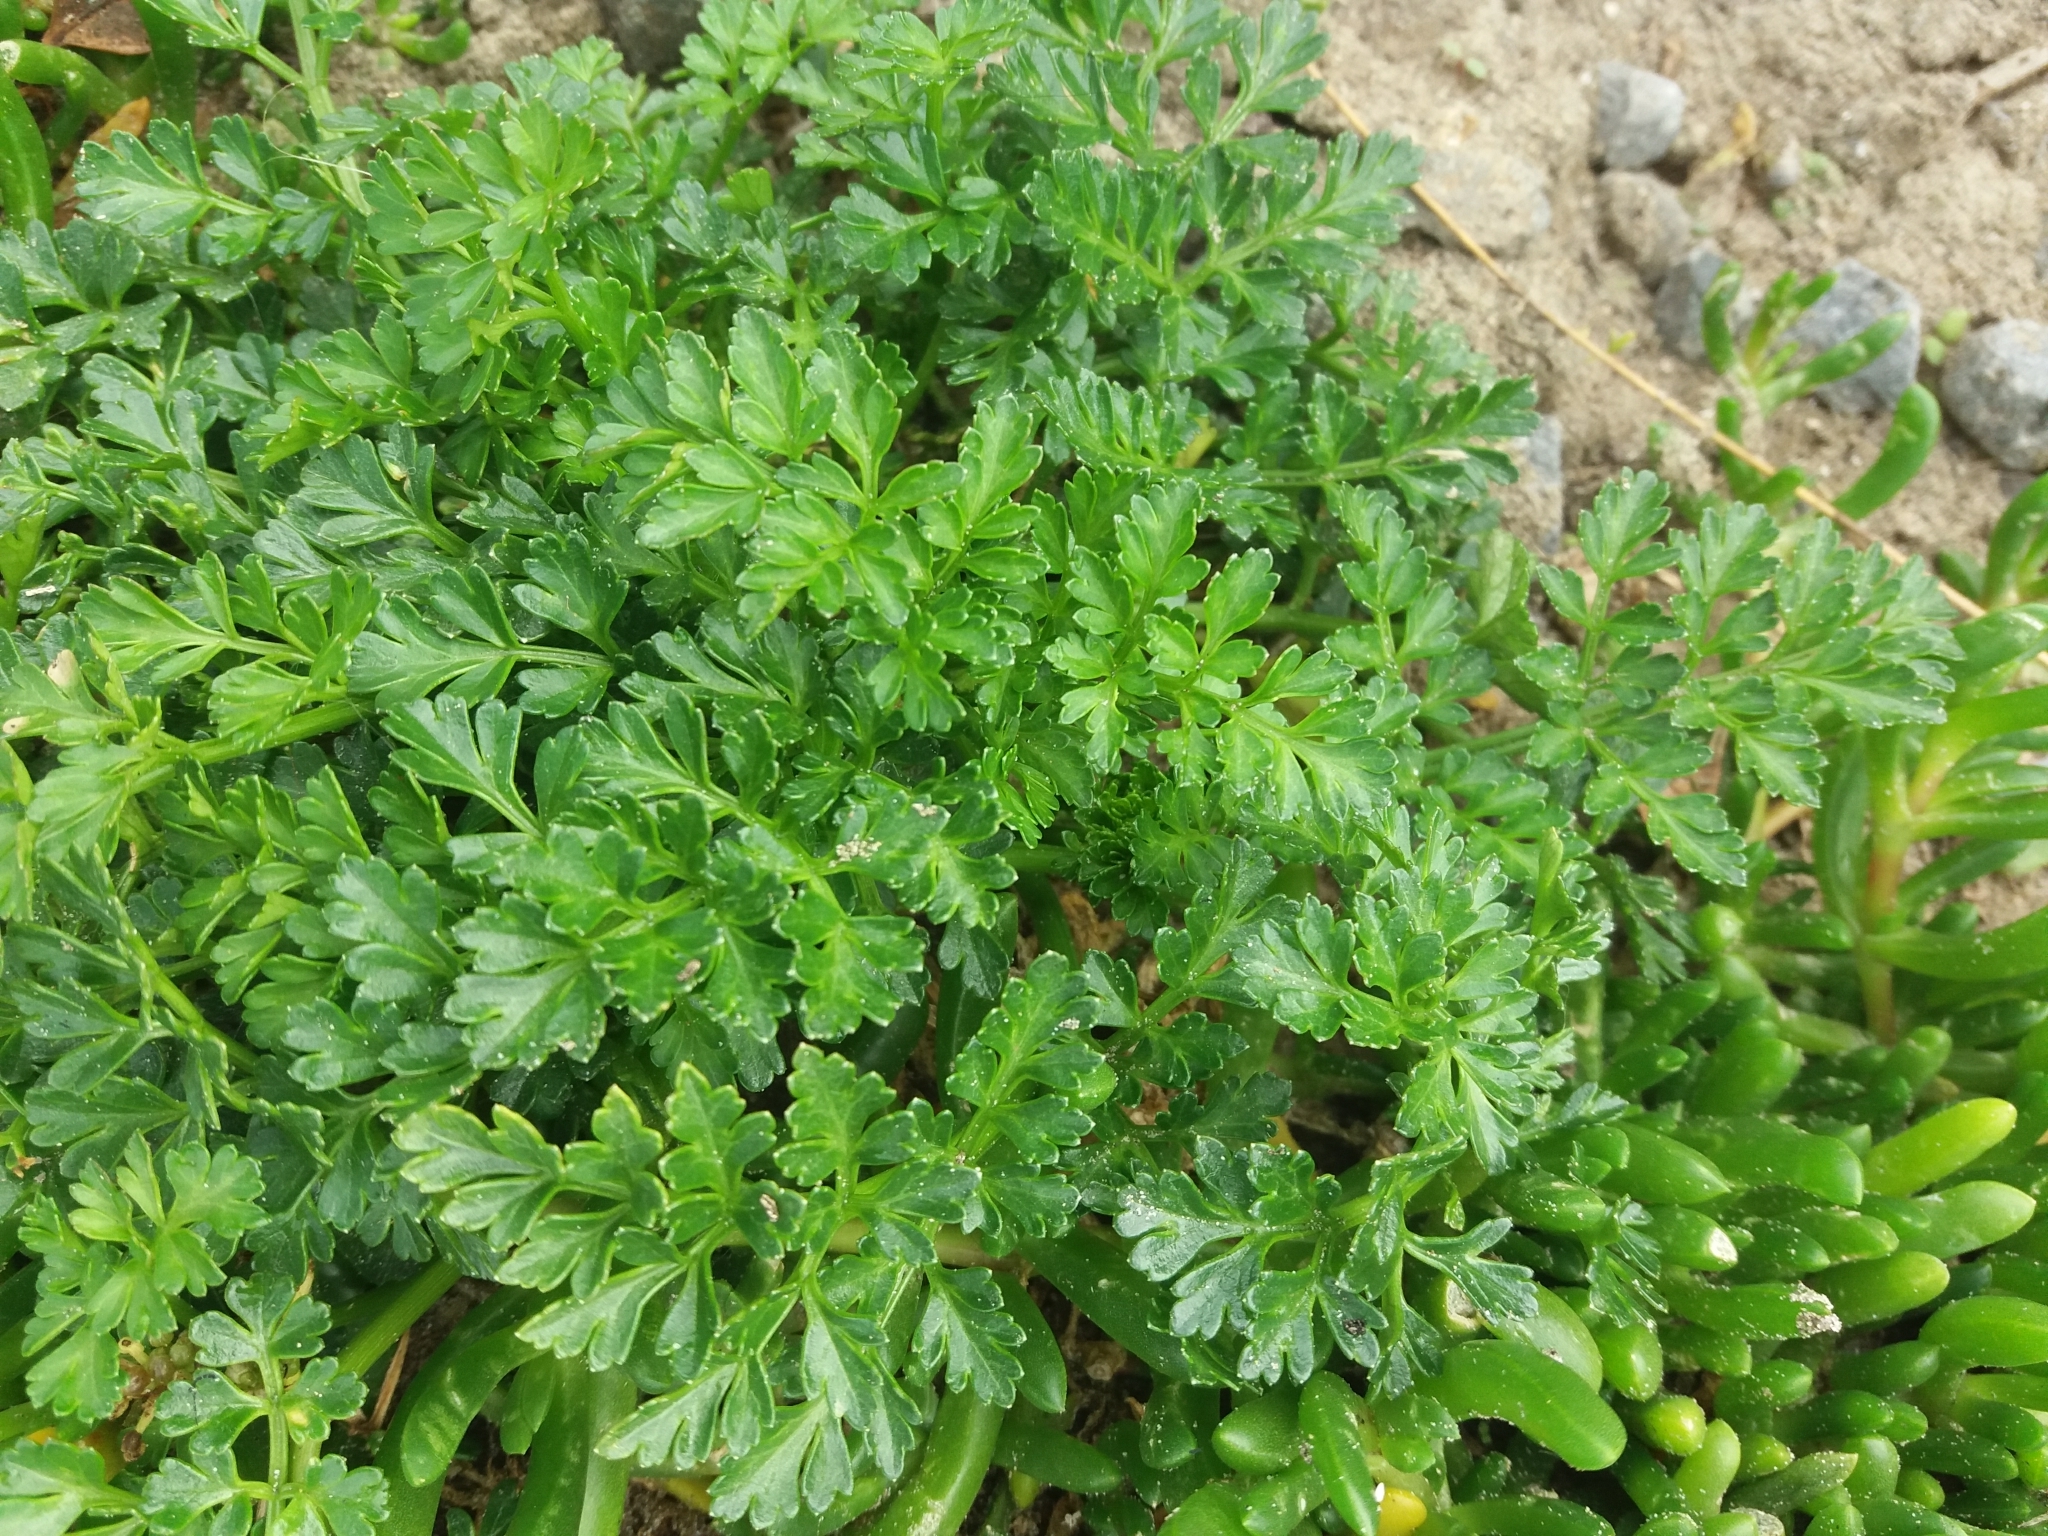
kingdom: Plantae
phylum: Tracheophyta
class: Magnoliopsida
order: Apiales
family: Apiaceae
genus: Apium
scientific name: Apium prostratum
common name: Prostrate marshwort
